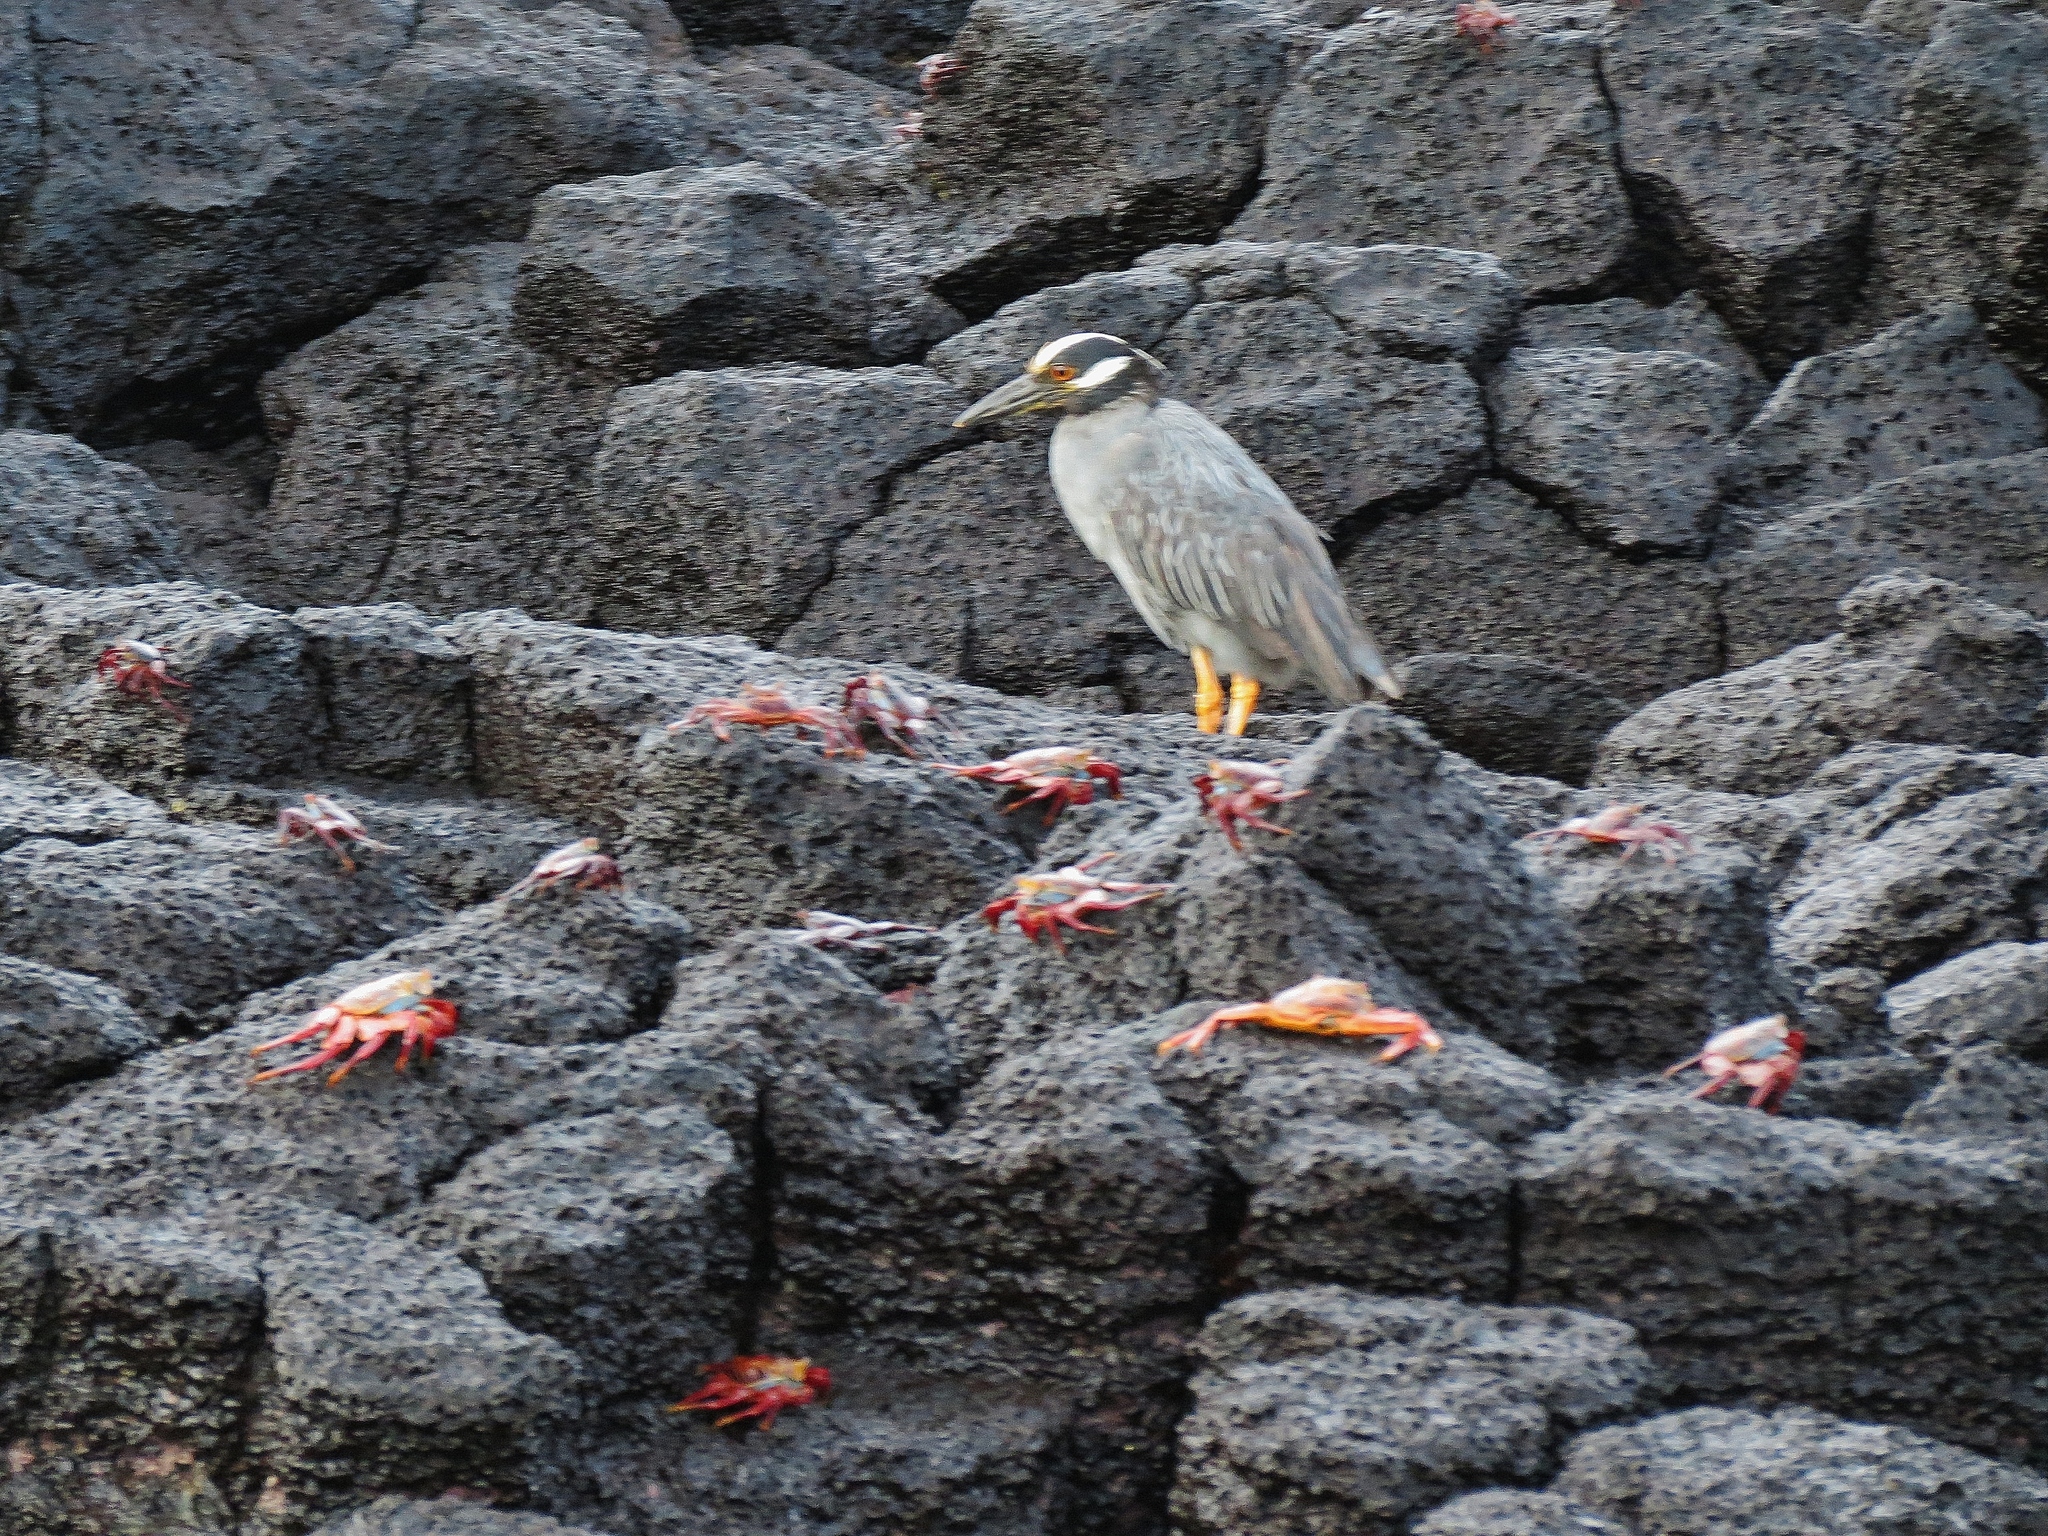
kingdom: Animalia
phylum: Chordata
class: Aves
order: Pelecaniformes
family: Ardeidae
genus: Nyctanassa
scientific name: Nyctanassa violacea
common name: Yellow-crowned night heron
